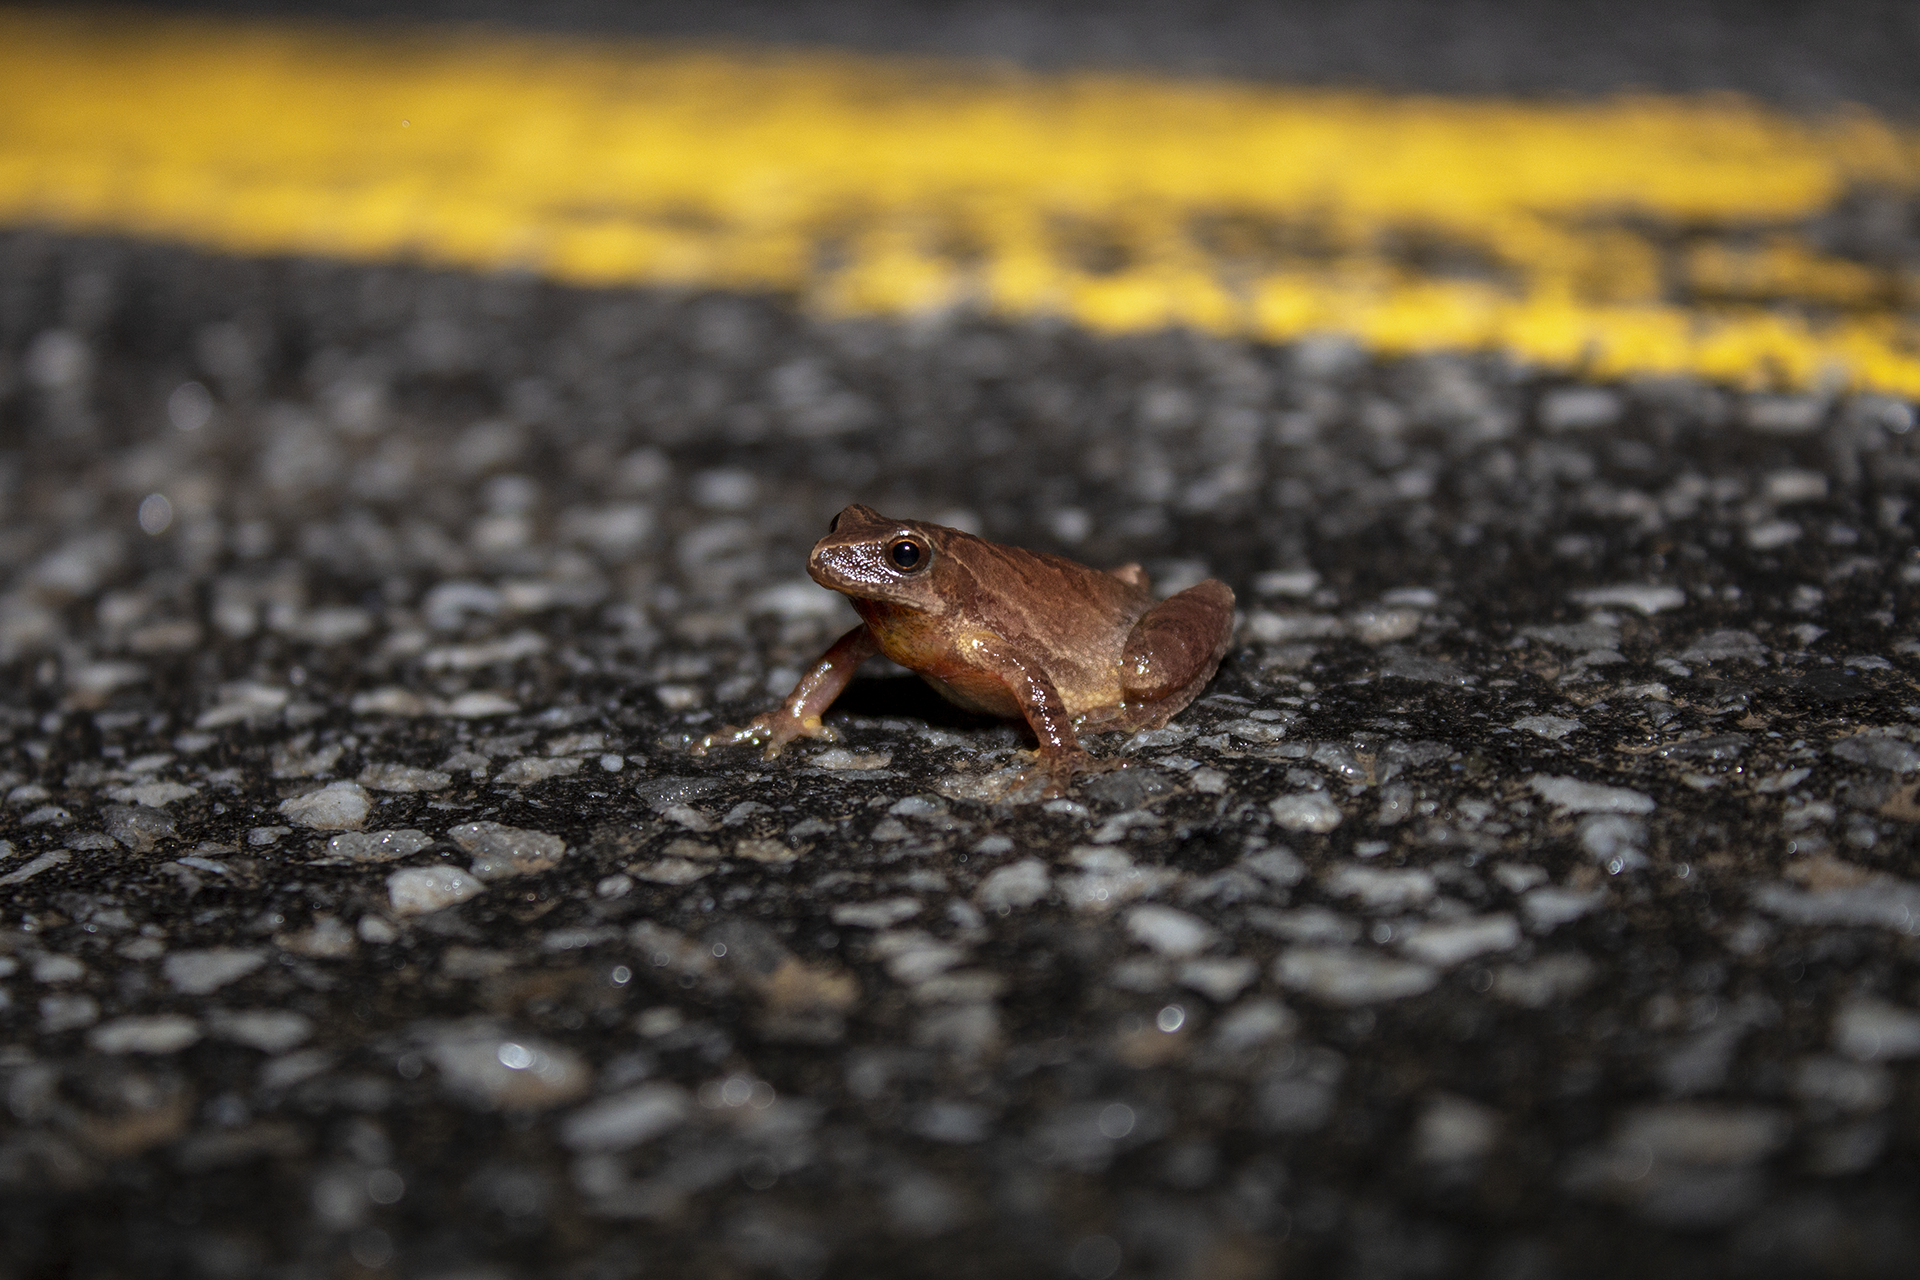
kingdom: Animalia
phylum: Chordata
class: Amphibia
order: Anura
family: Hylidae
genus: Pseudacris
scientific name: Pseudacris crucifer
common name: Spring peeper
